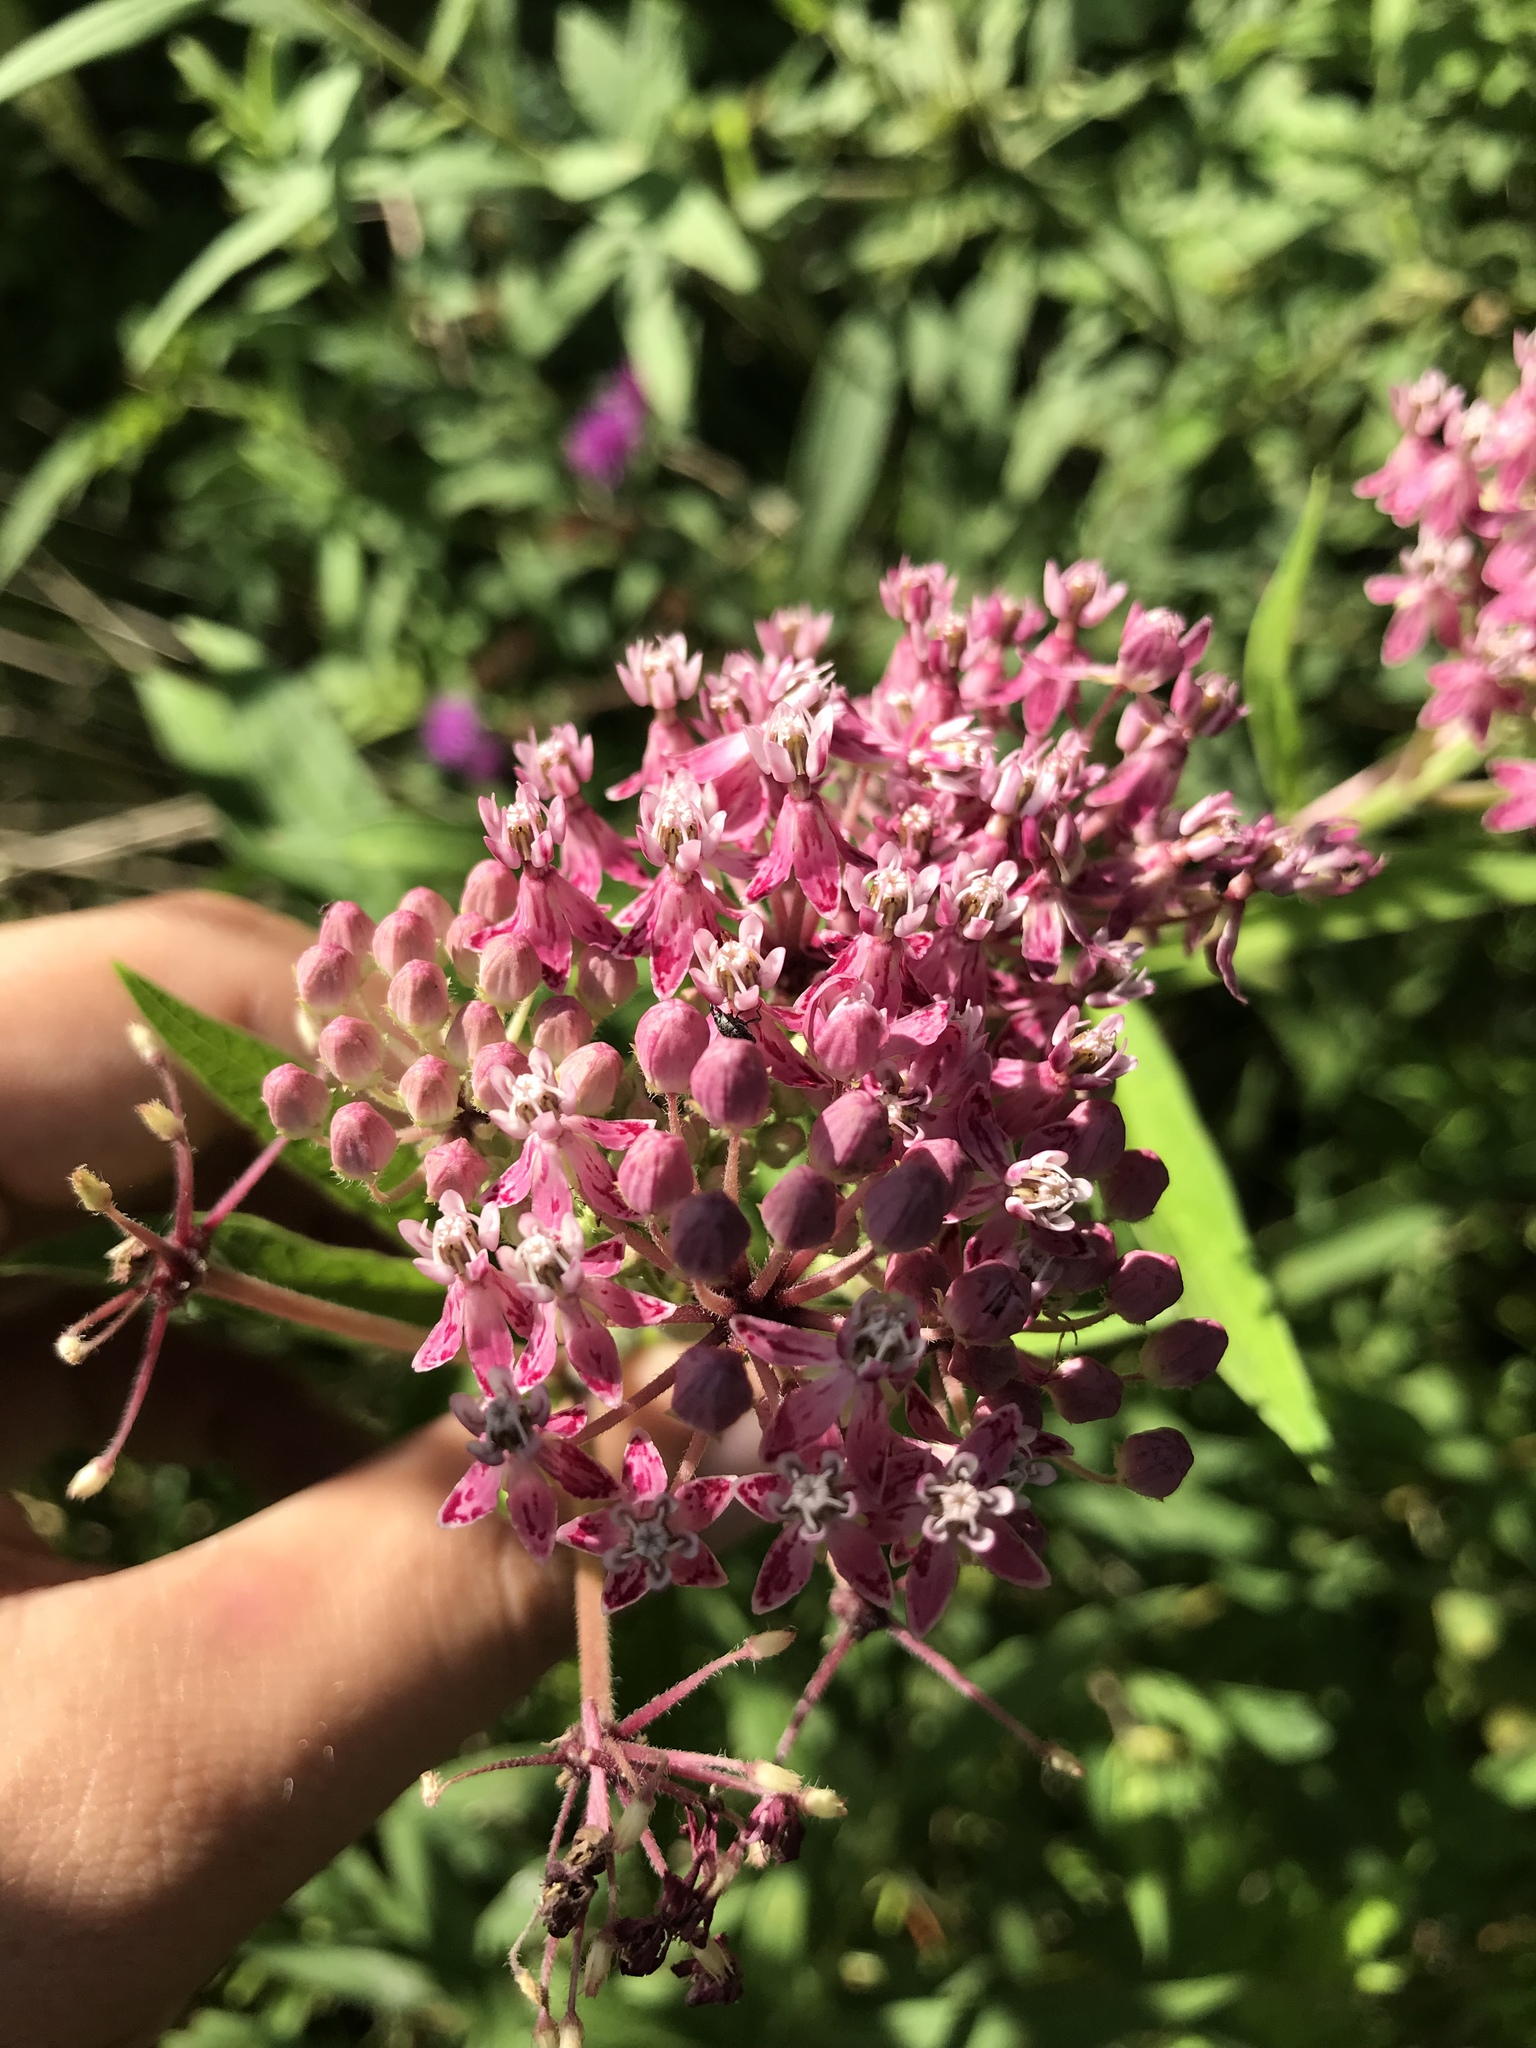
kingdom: Plantae
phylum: Tracheophyta
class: Magnoliopsida
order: Gentianales
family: Apocynaceae
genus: Asclepias
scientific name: Asclepias incarnata
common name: Swamp milkweed
